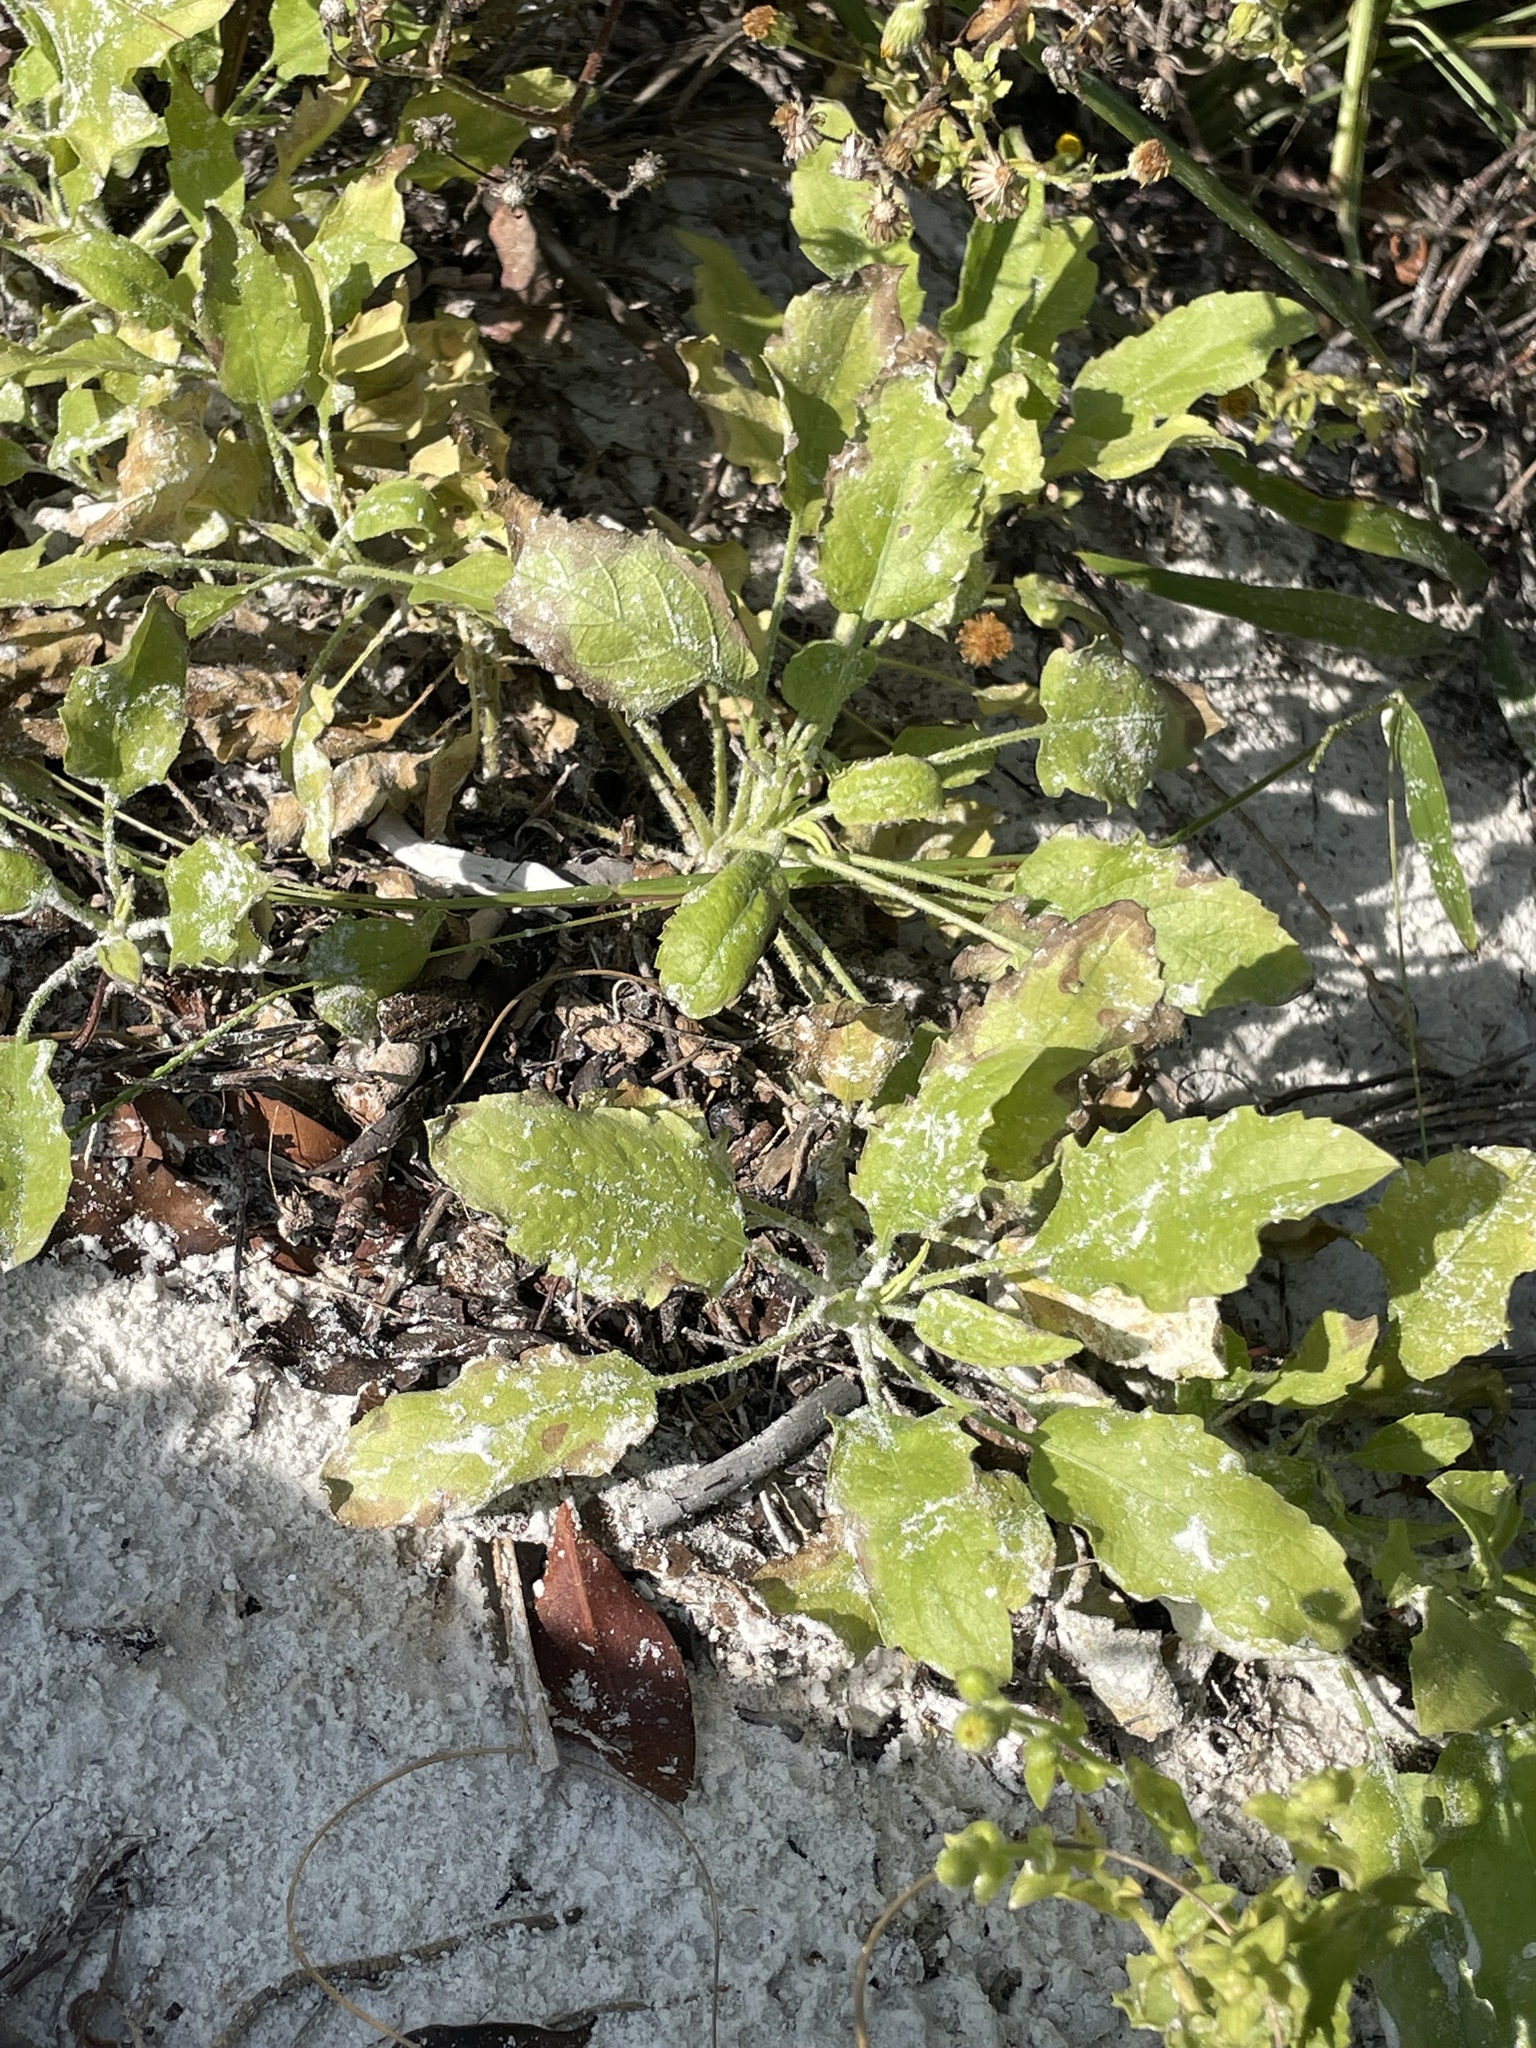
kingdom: Plantae
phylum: Tracheophyta
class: Magnoliopsida
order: Asterales
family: Asteraceae
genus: Heterotheca
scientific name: Heterotheca subaxillaris
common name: Camphorweed
